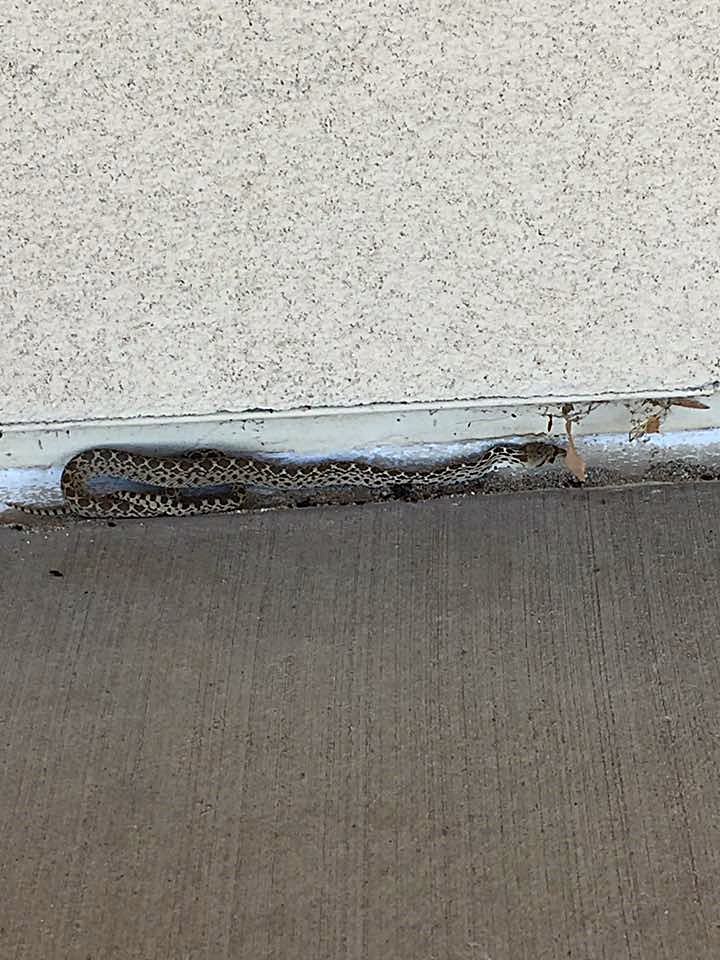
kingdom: Animalia
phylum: Chordata
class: Squamata
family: Colubridae
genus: Pituophis
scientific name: Pituophis catenifer
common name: Gopher snake
